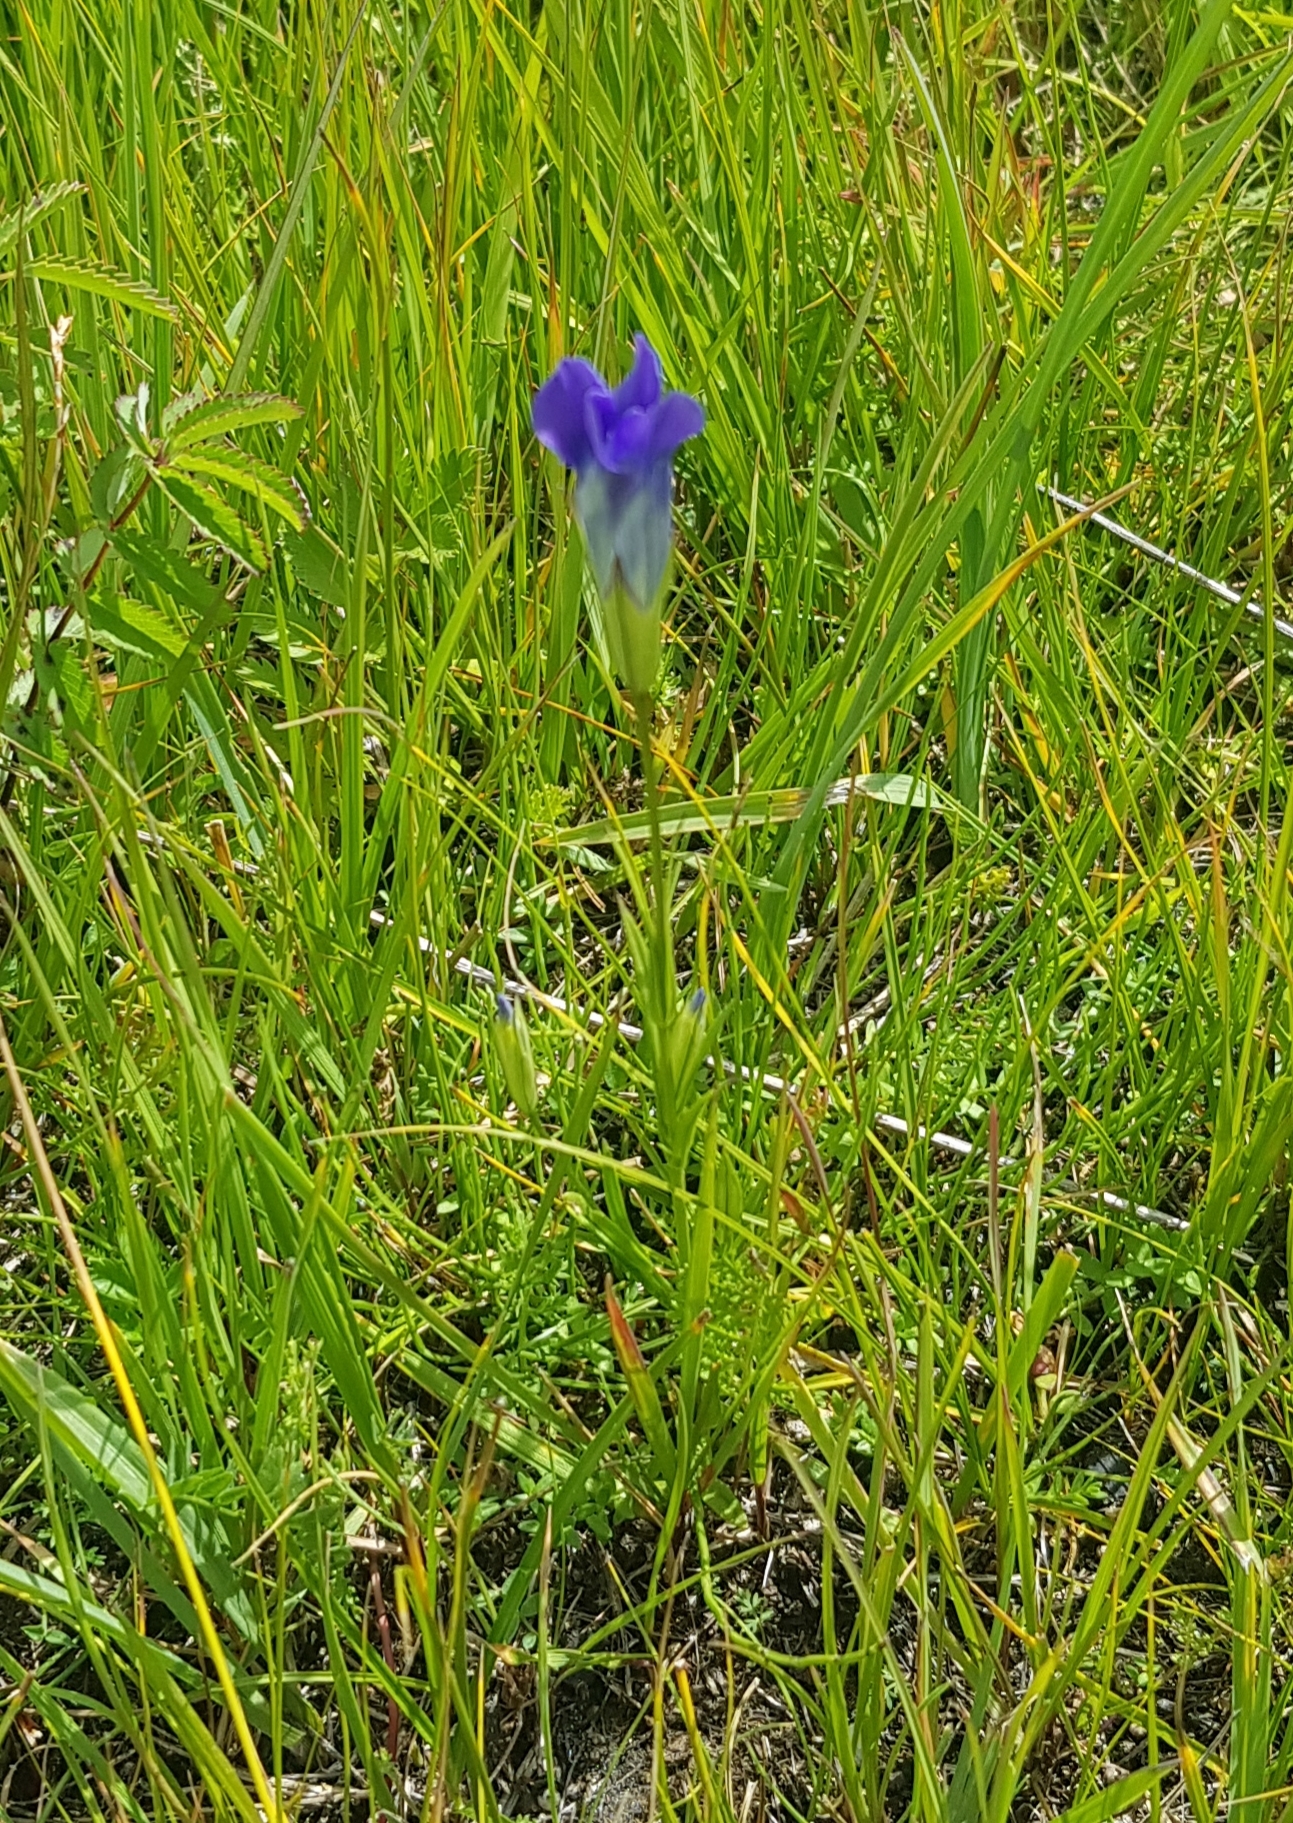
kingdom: Plantae
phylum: Tracheophyta
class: Magnoliopsida
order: Gentianales
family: Gentianaceae
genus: Gentianopsis
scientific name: Gentianopsis barbata
